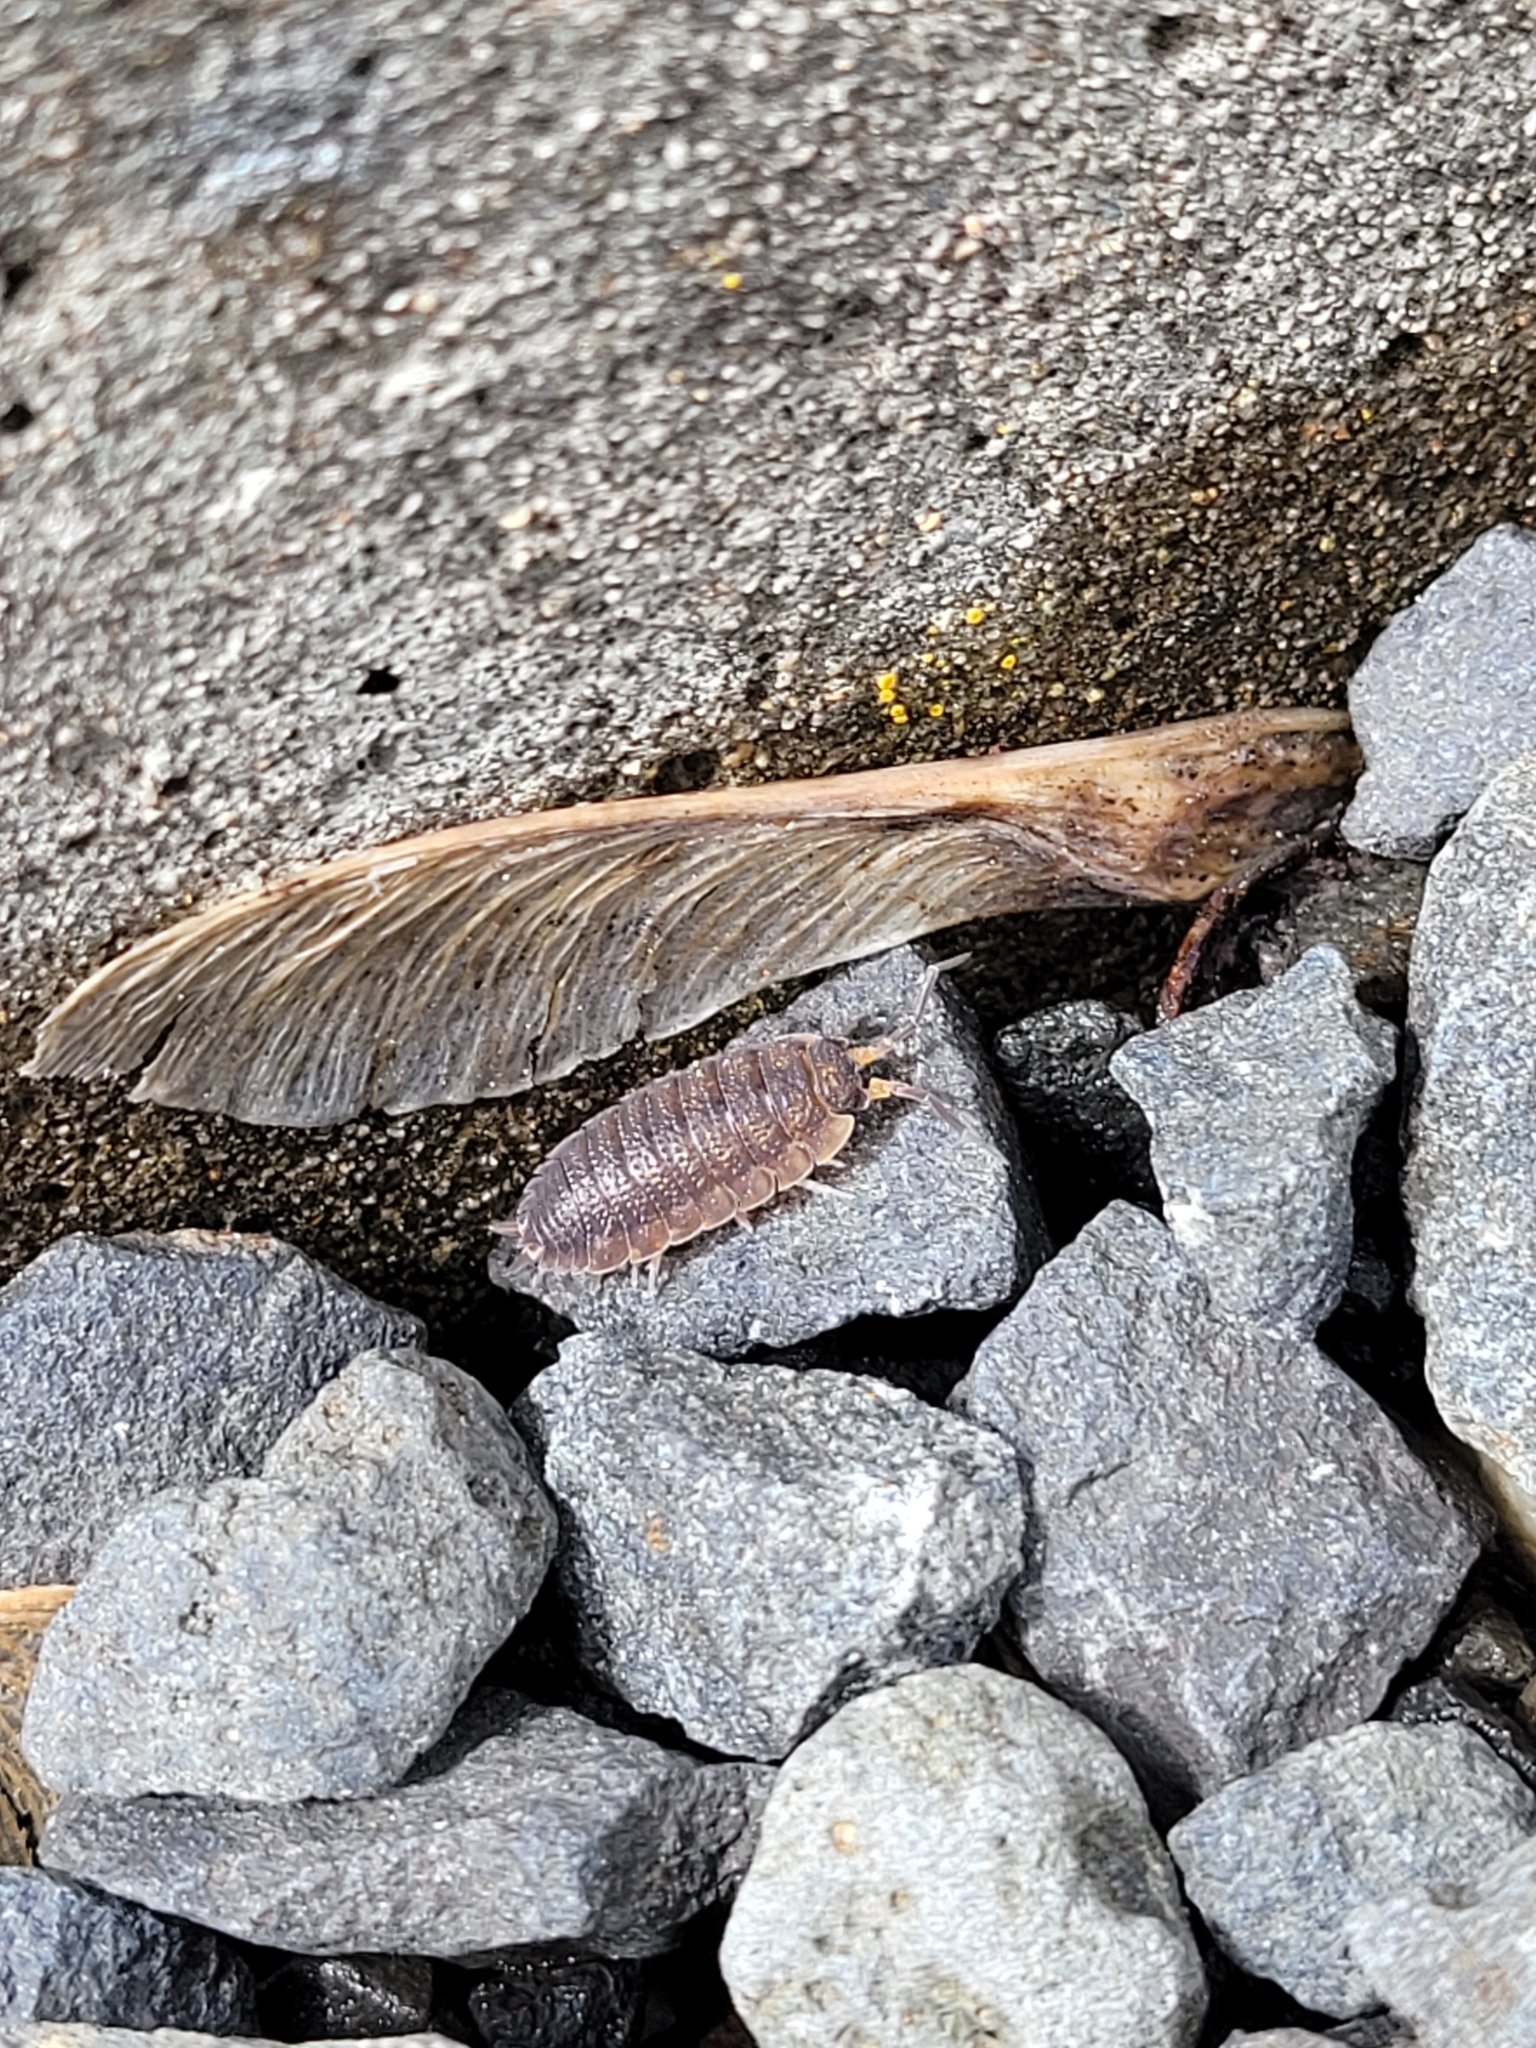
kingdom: Animalia
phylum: Arthropoda
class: Malacostraca
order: Isopoda
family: Porcellionidae
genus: Porcellio
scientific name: Porcellio scaber
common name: Common rough woodlouse
